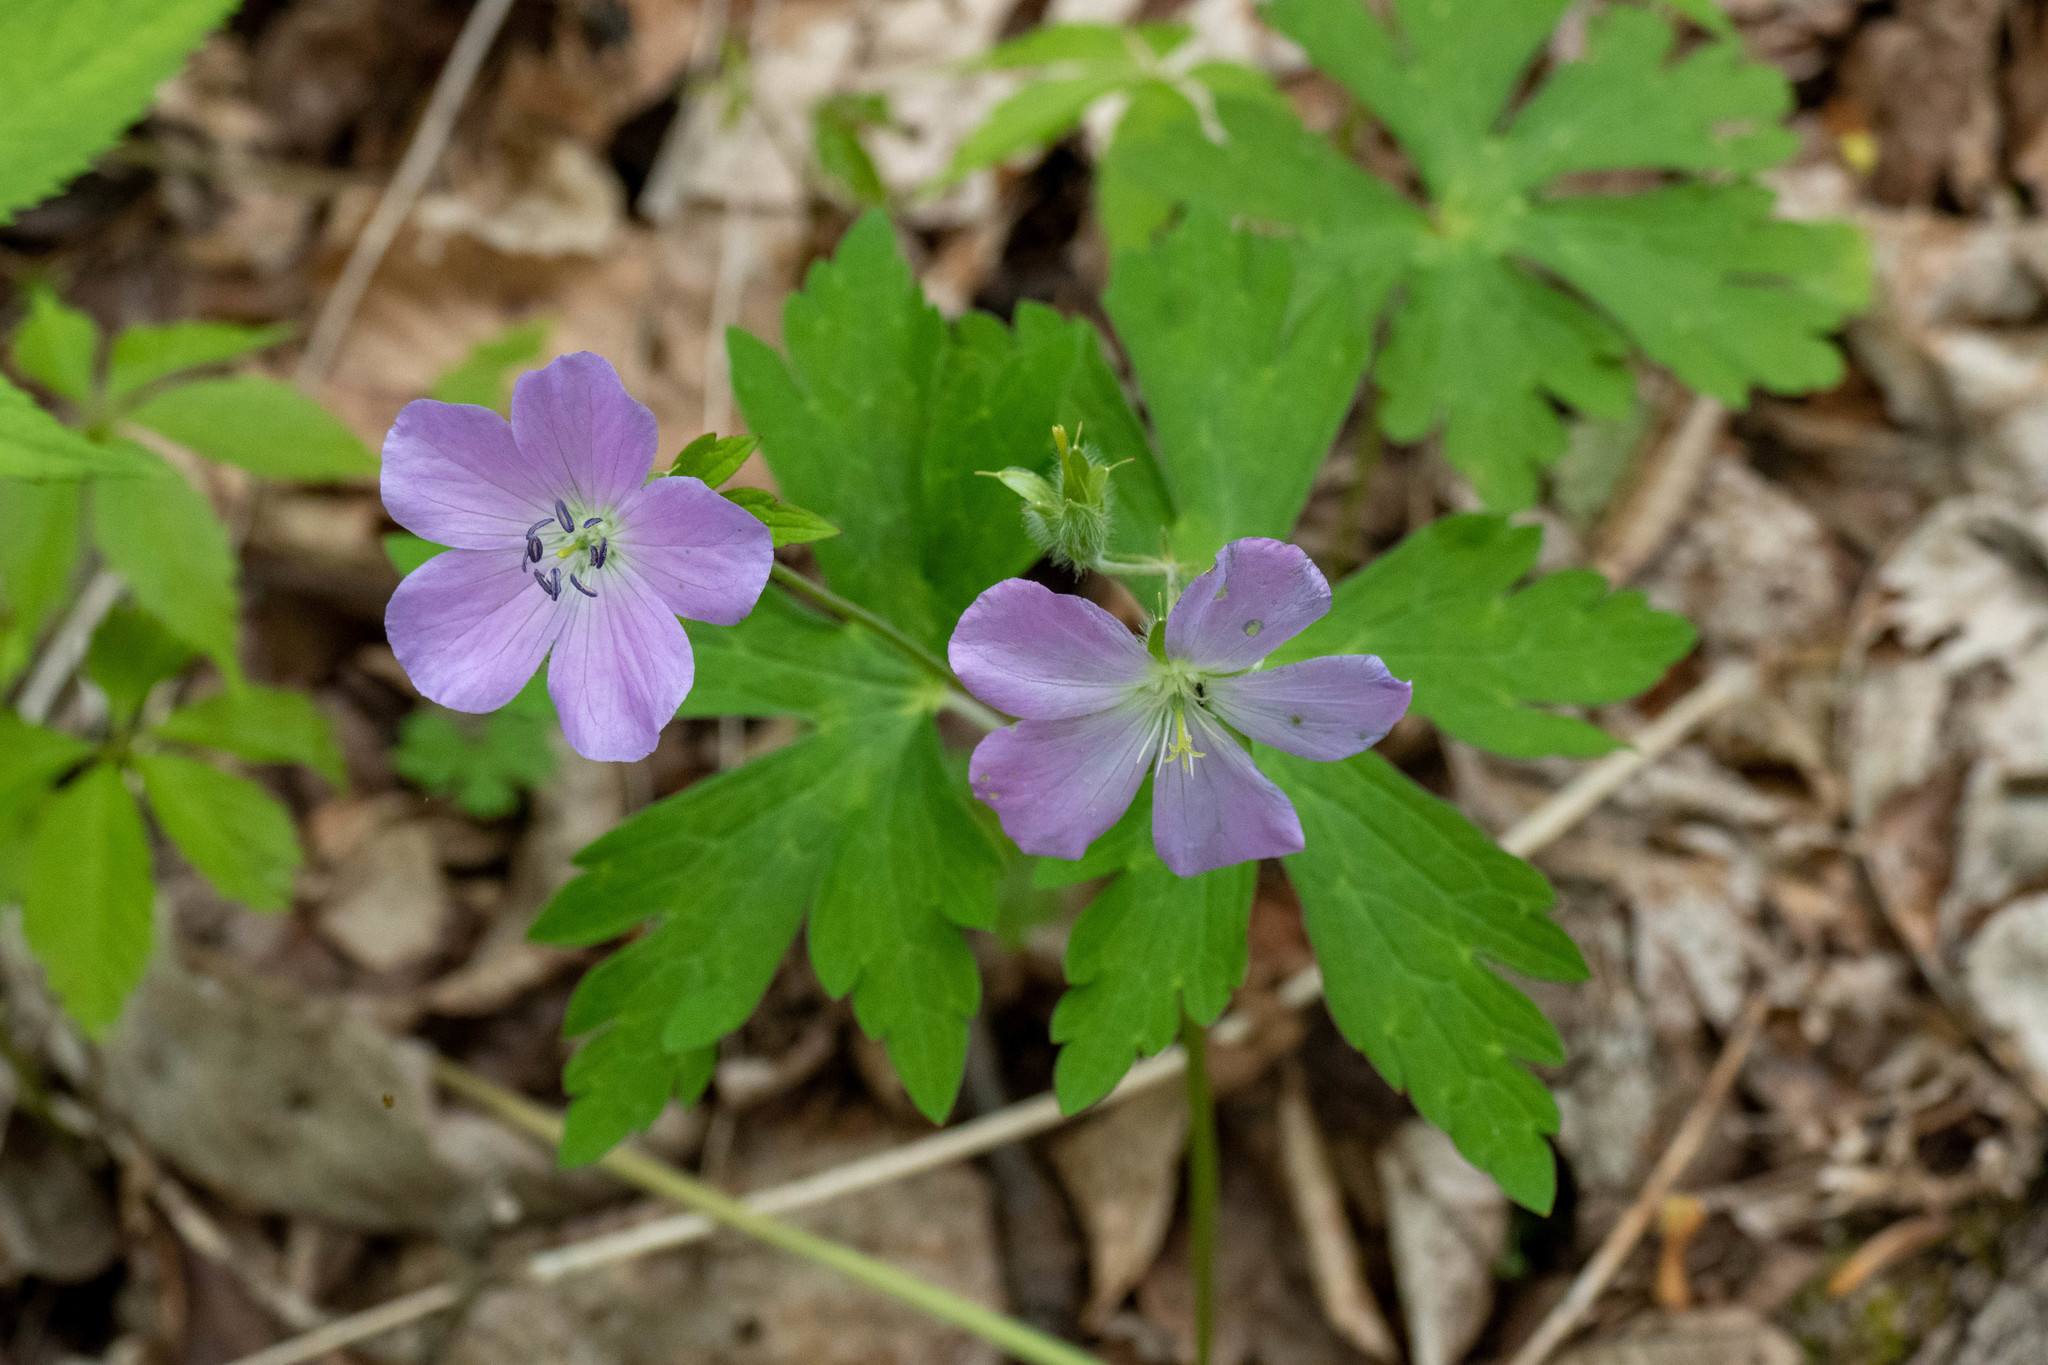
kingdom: Plantae
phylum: Tracheophyta
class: Magnoliopsida
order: Geraniales
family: Geraniaceae
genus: Geranium
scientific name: Geranium maculatum
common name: Spotted geranium
